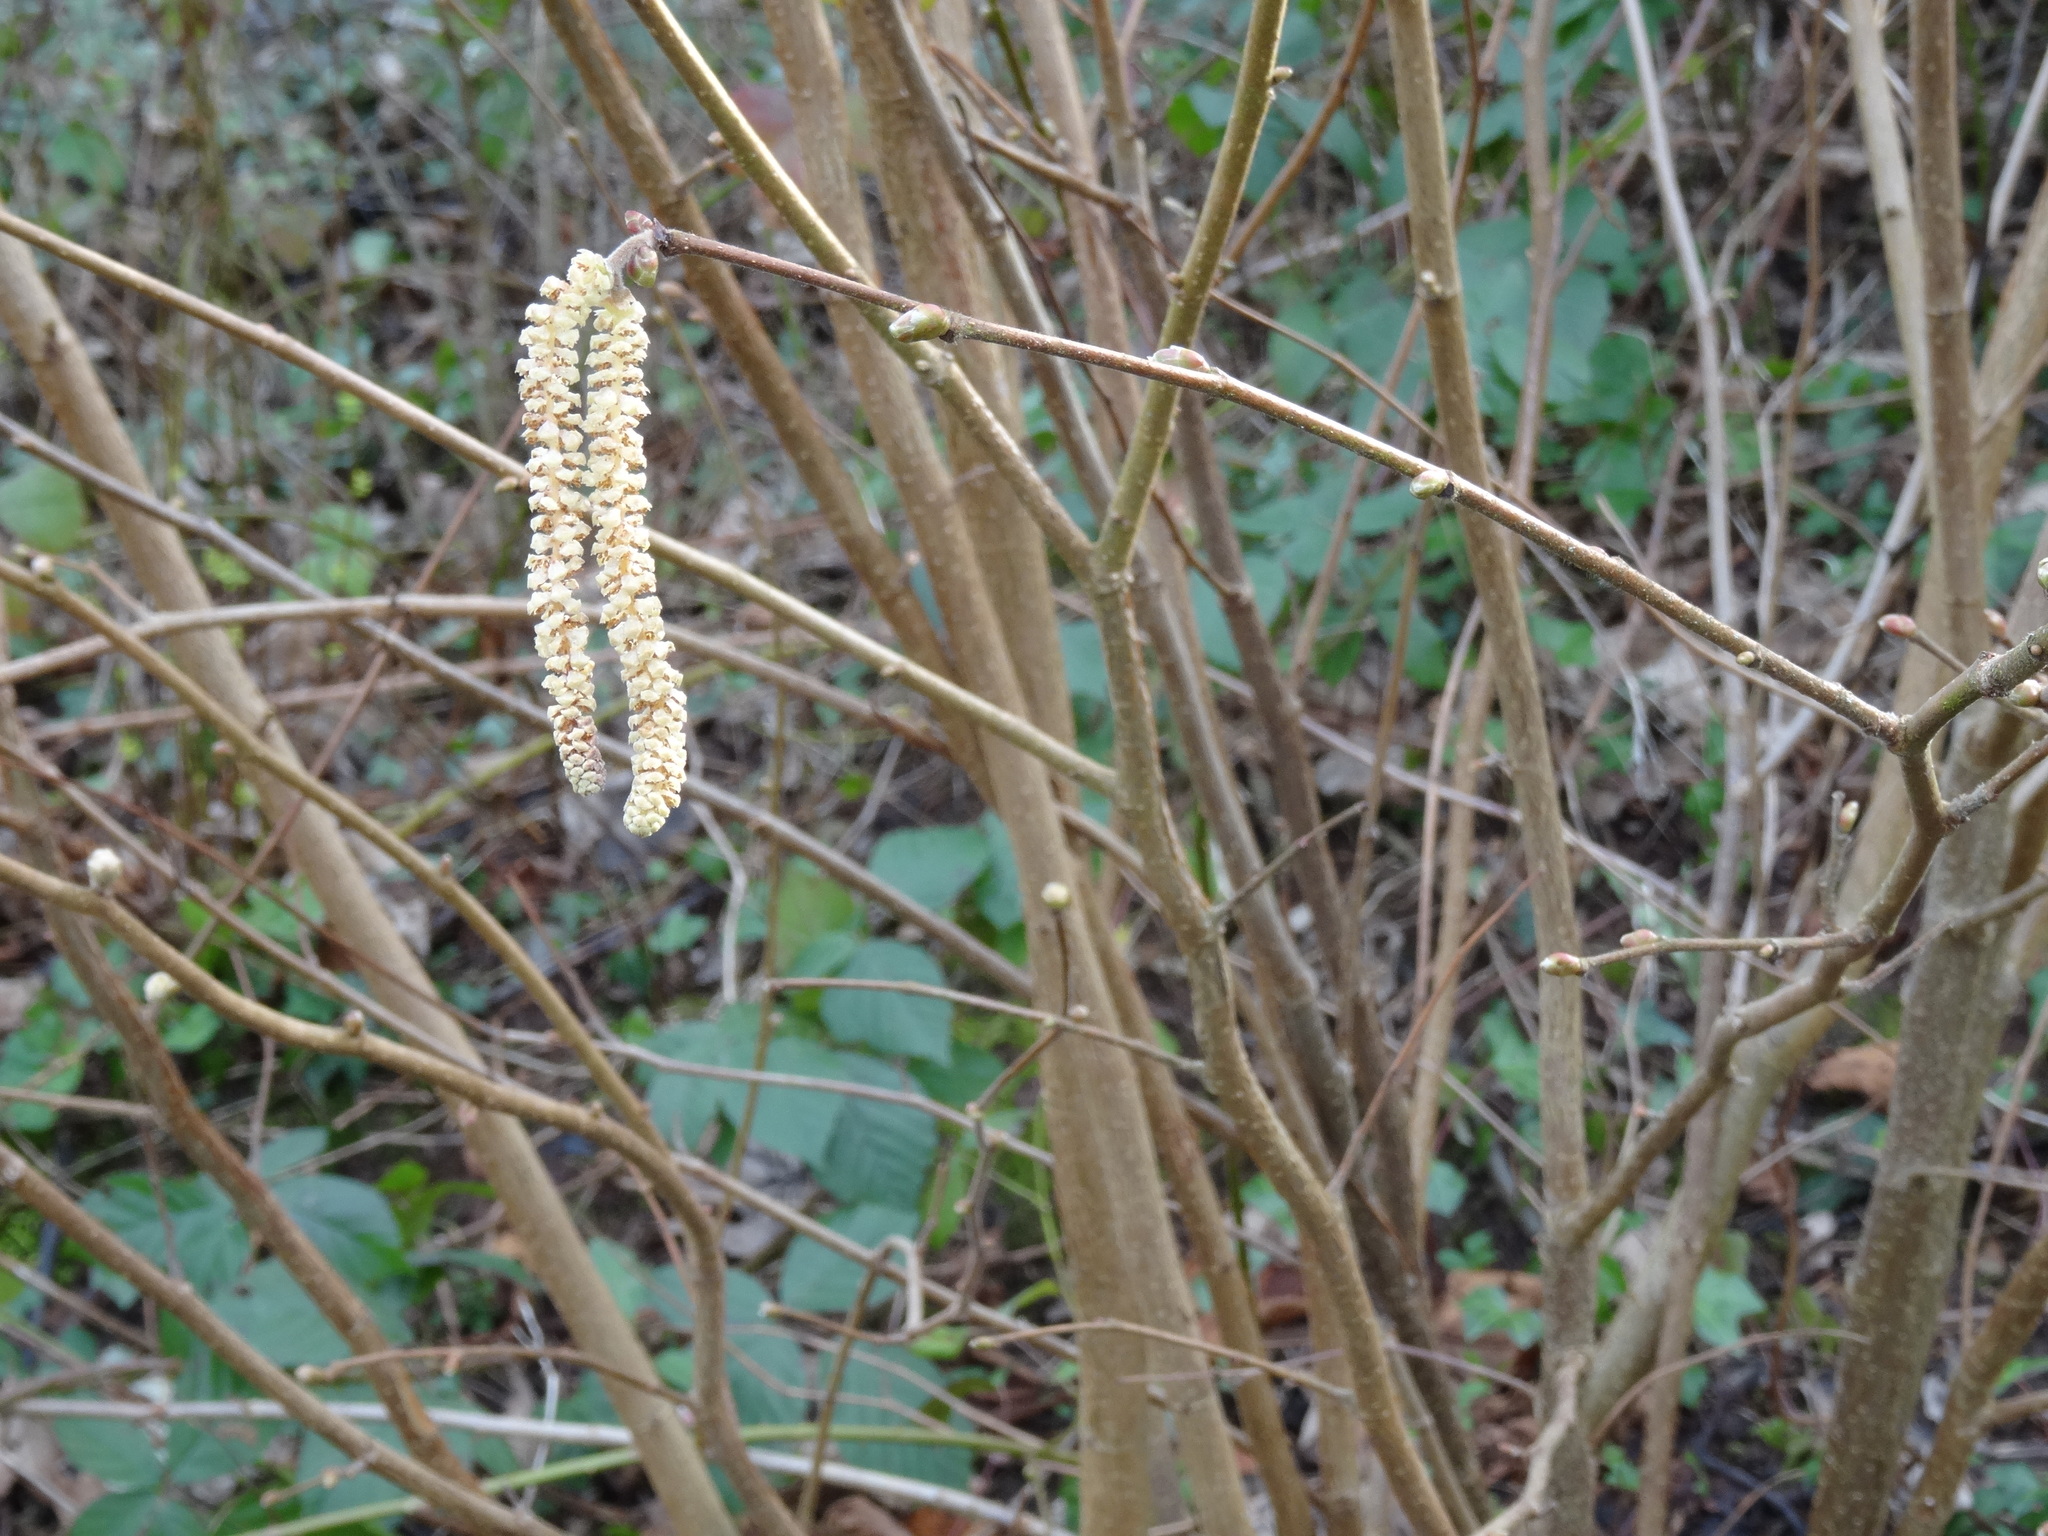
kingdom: Plantae
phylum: Tracheophyta
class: Magnoliopsida
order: Fagales
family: Betulaceae
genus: Corylus
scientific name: Corylus avellana
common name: European hazel
